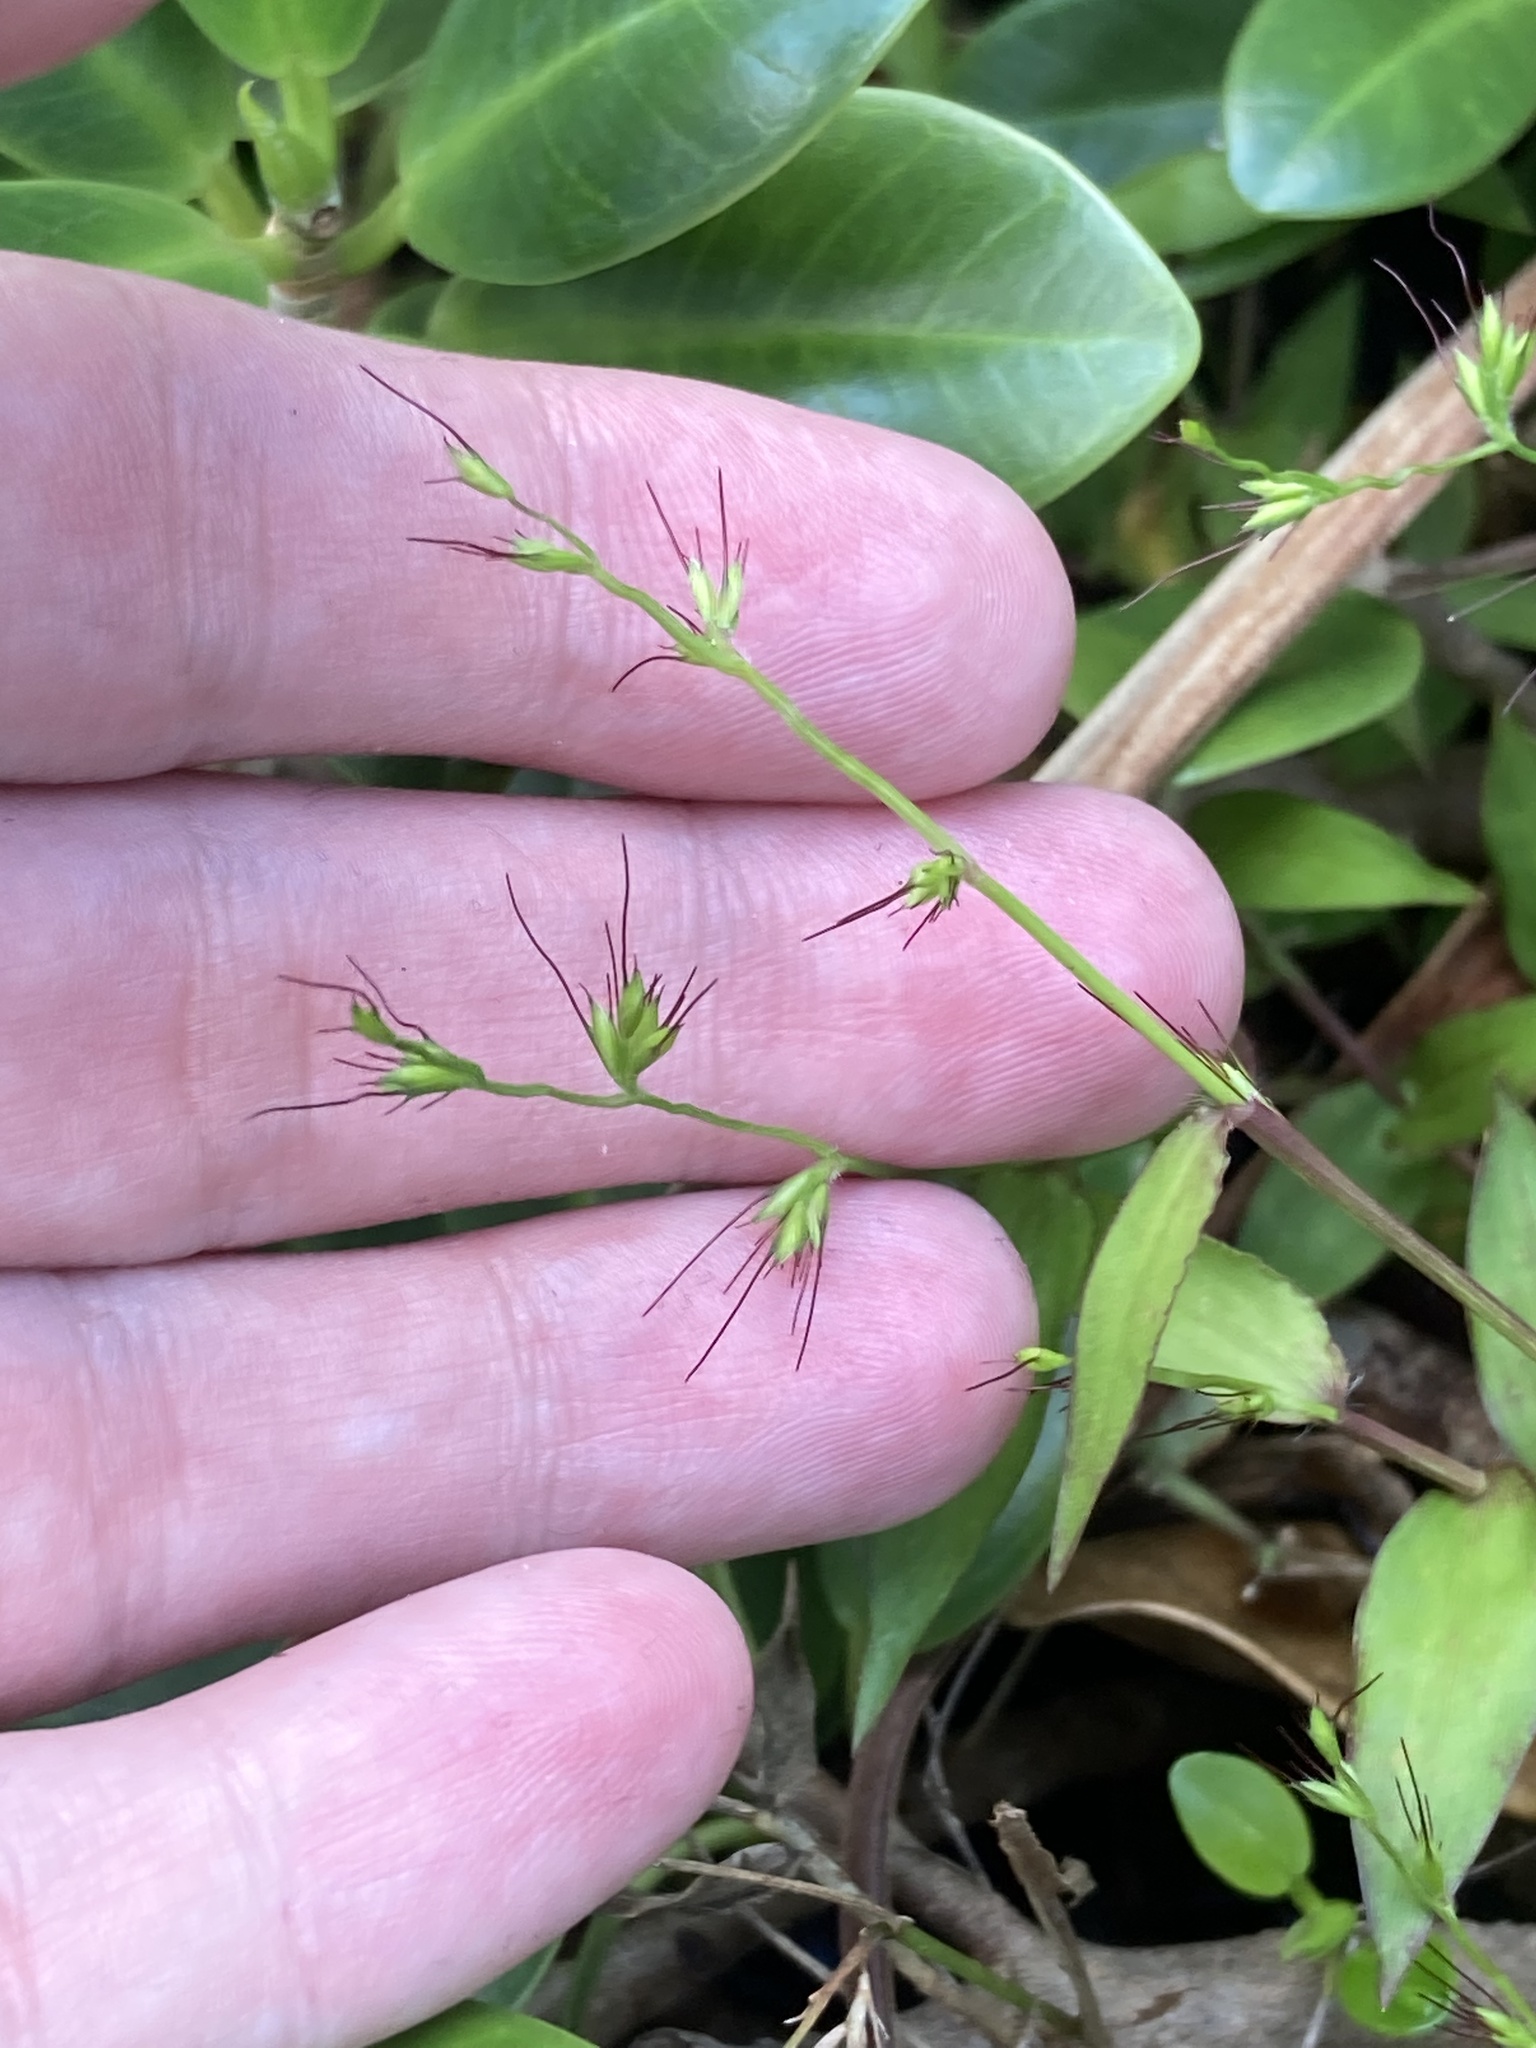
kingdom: Plantae
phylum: Tracheophyta
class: Liliopsida
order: Poales
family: Poaceae
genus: Oplismenus
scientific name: Oplismenus hirtellus
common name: Basketgrass
